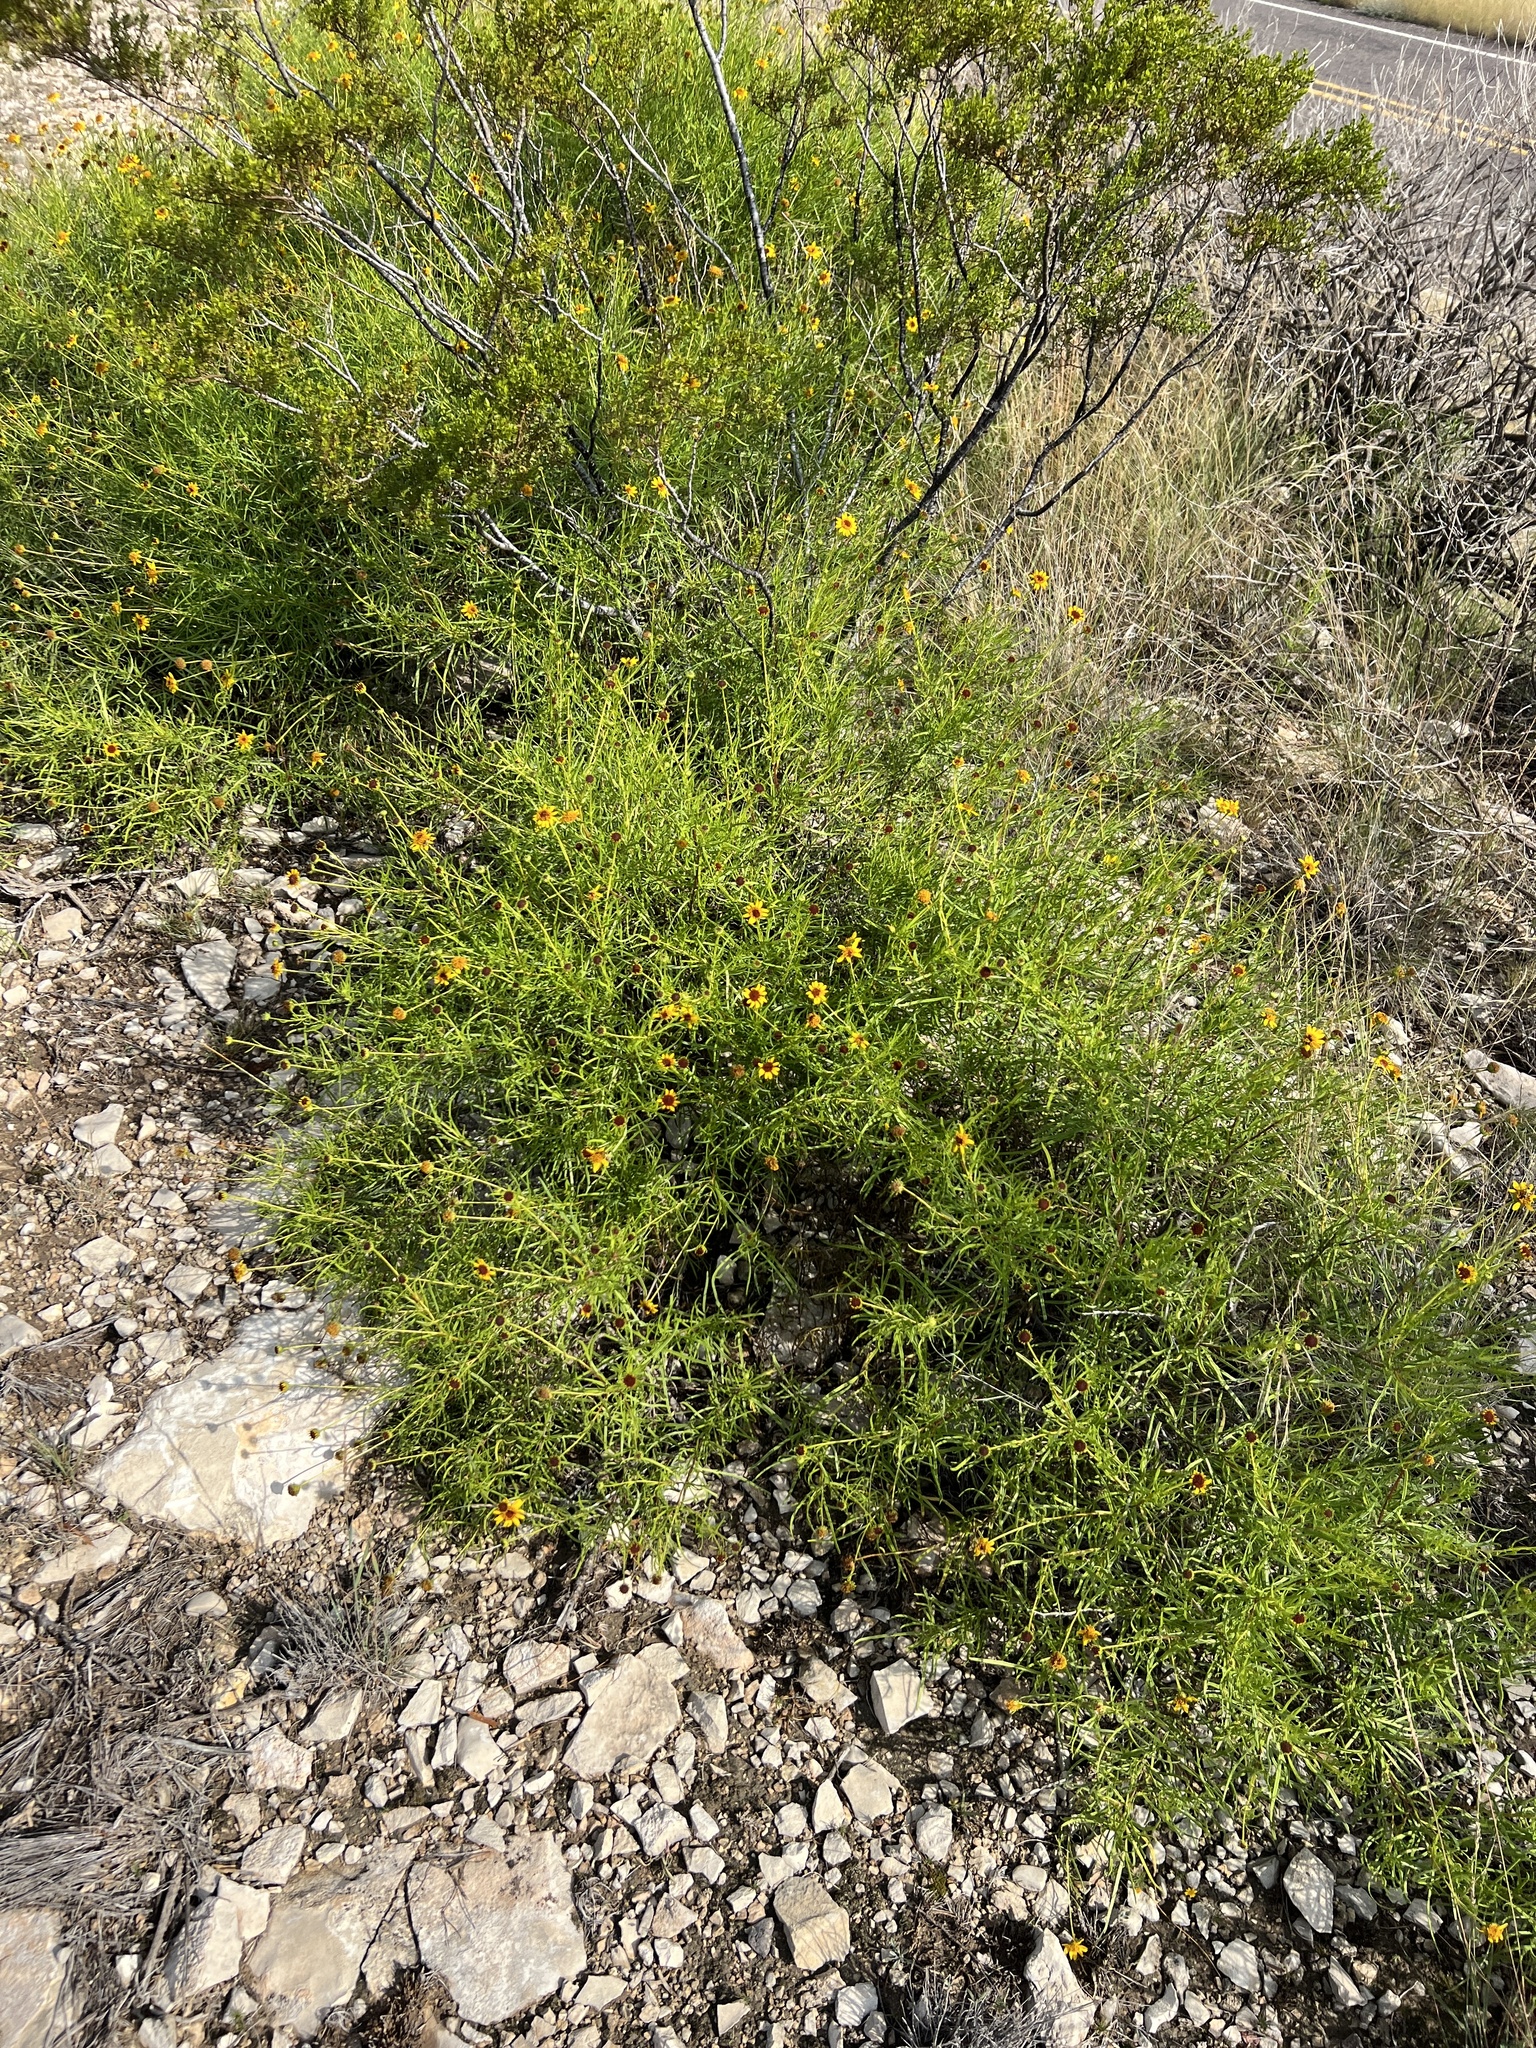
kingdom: Plantae
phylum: Tracheophyta
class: Magnoliopsida
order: Asterales
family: Asteraceae
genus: Sidneya
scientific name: Sidneya tenuifolia
